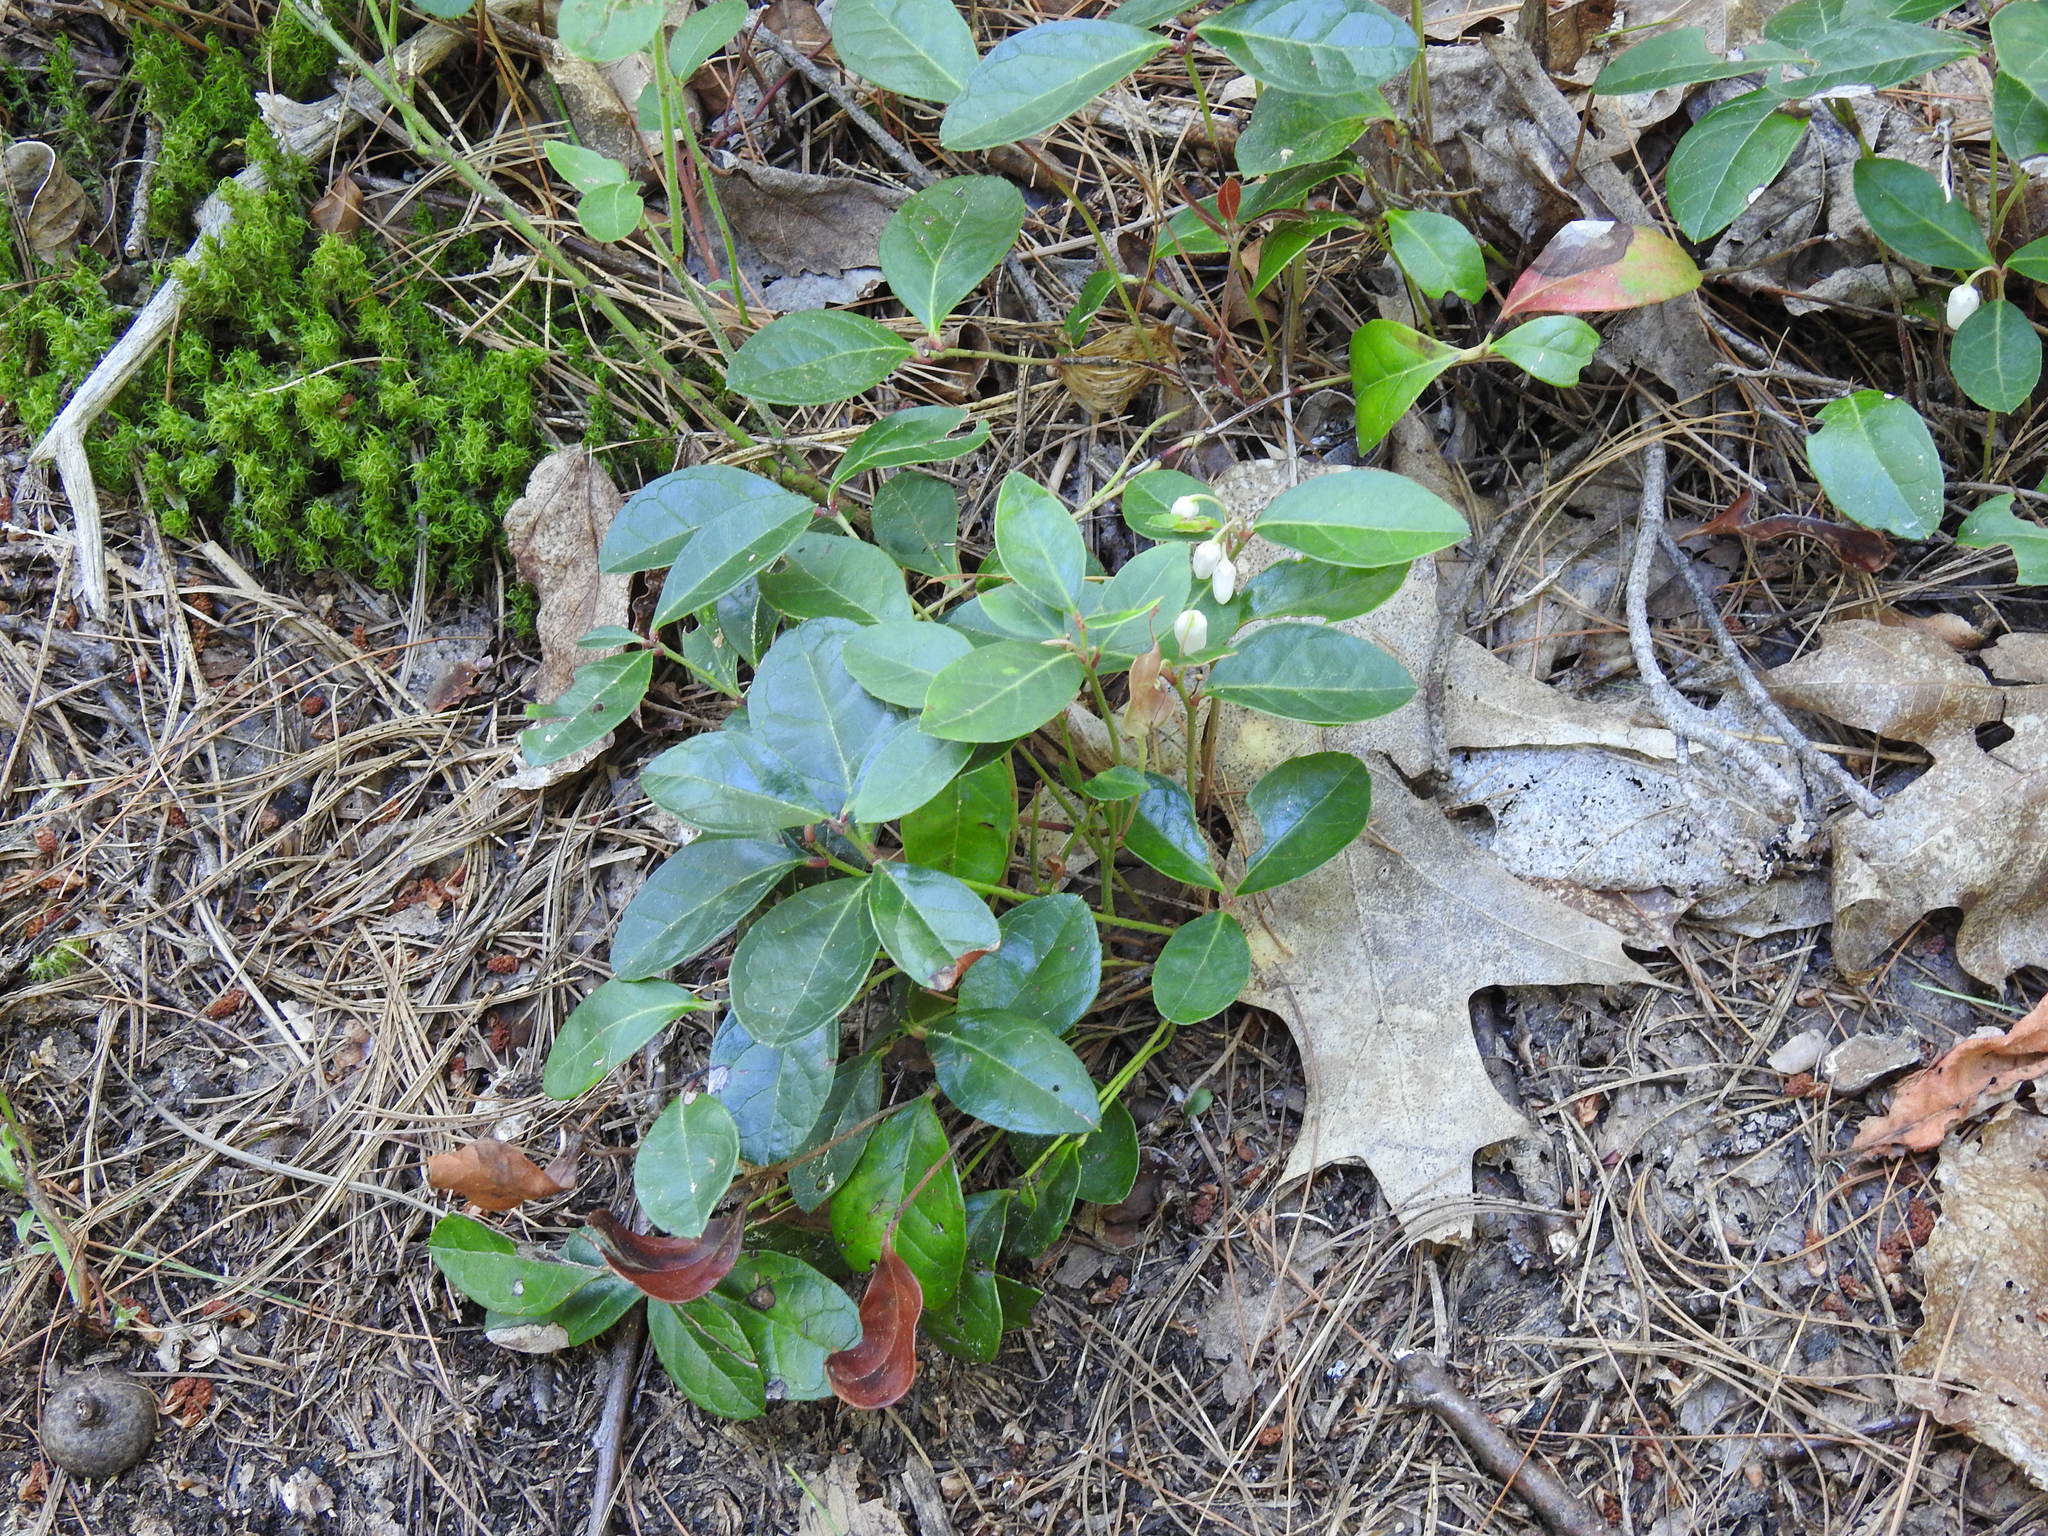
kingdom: Plantae
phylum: Tracheophyta
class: Magnoliopsida
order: Ericales
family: Ericaceae
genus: Gaultheria
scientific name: Gaultheria procumbens
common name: Checkerberry
